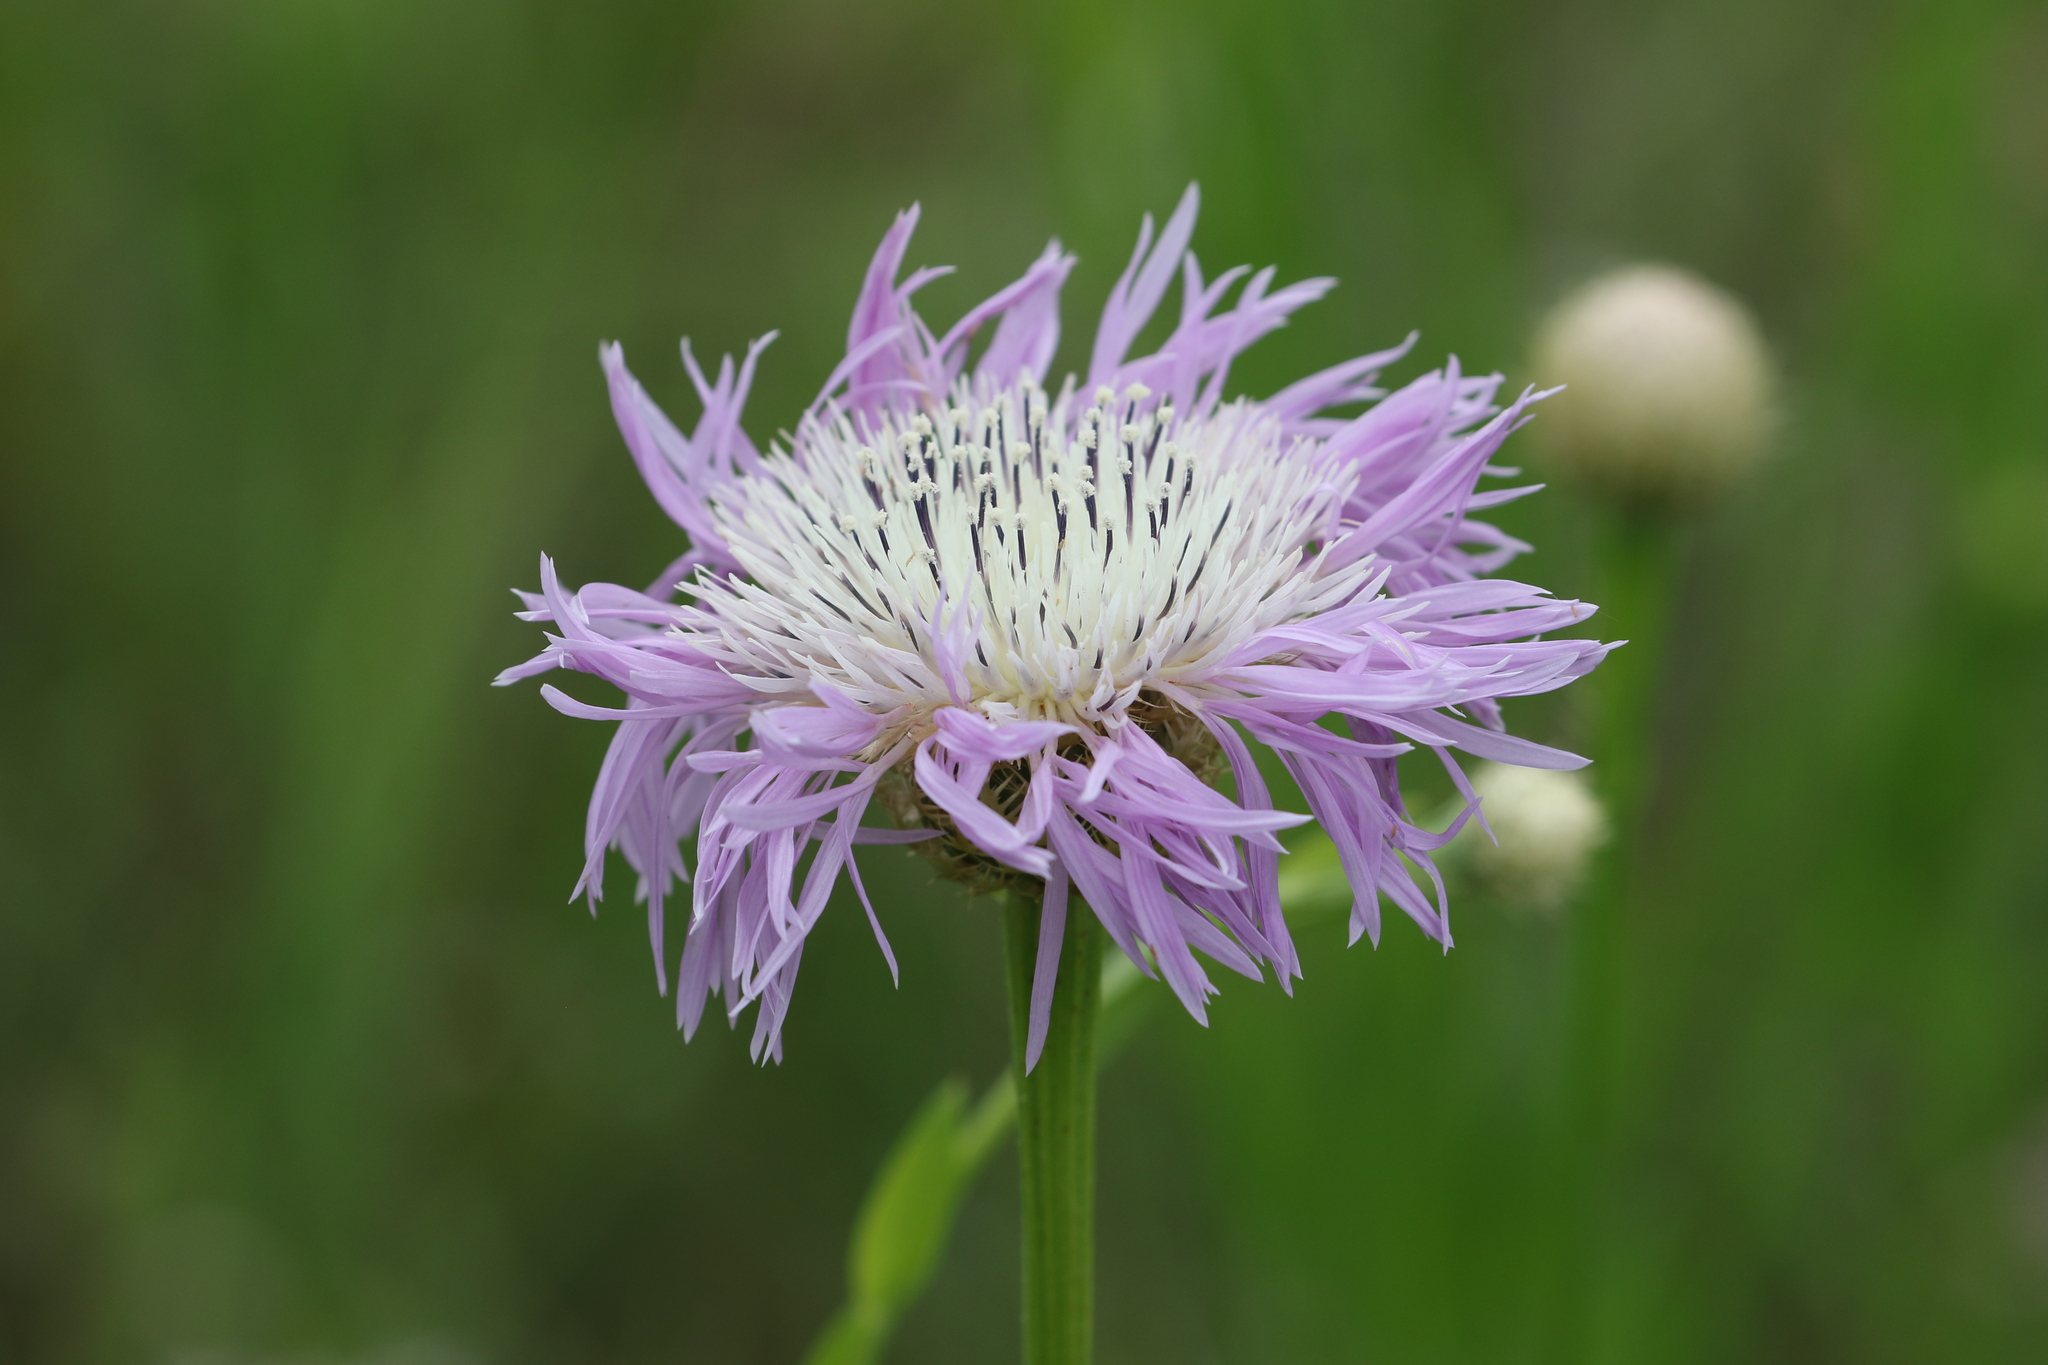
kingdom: Plantae
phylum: Tracheophyta
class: Magnoliopsida
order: Asterales
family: Asteraceae
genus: Plectocephalus
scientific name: Plectocephalus americanus
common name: American basket-flower
